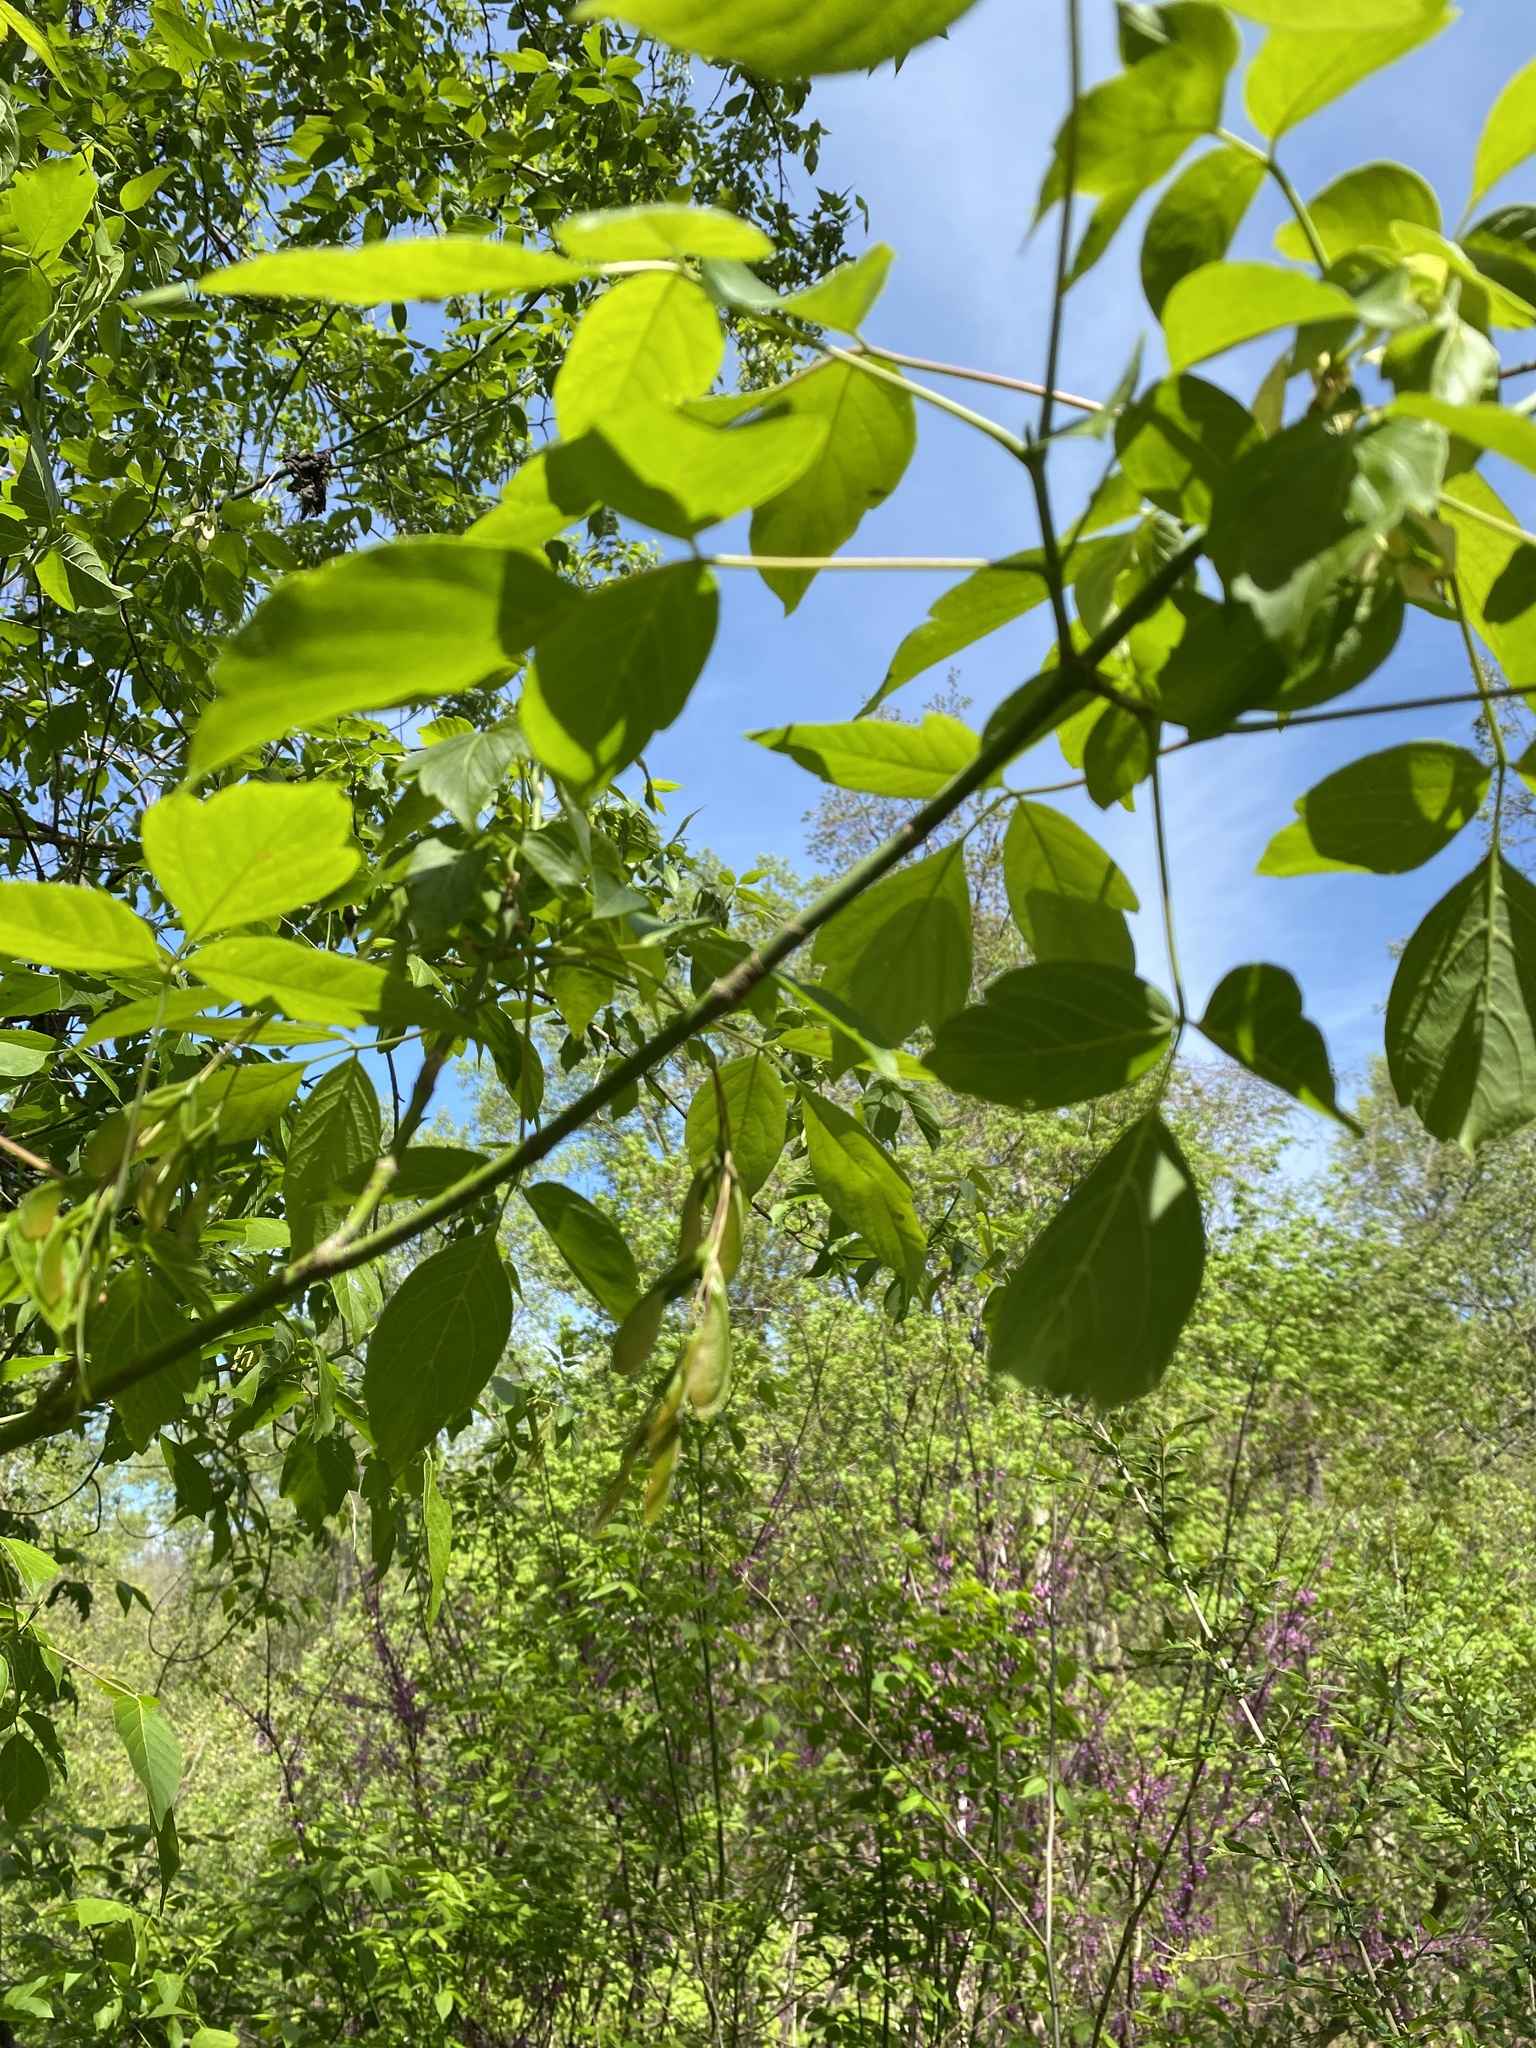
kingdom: Plantae
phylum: Tracheophyta
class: Magnoliopsida
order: Sapindales
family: Sapindaceae
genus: Acer
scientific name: Acer negundo
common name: Ashleaf maple
